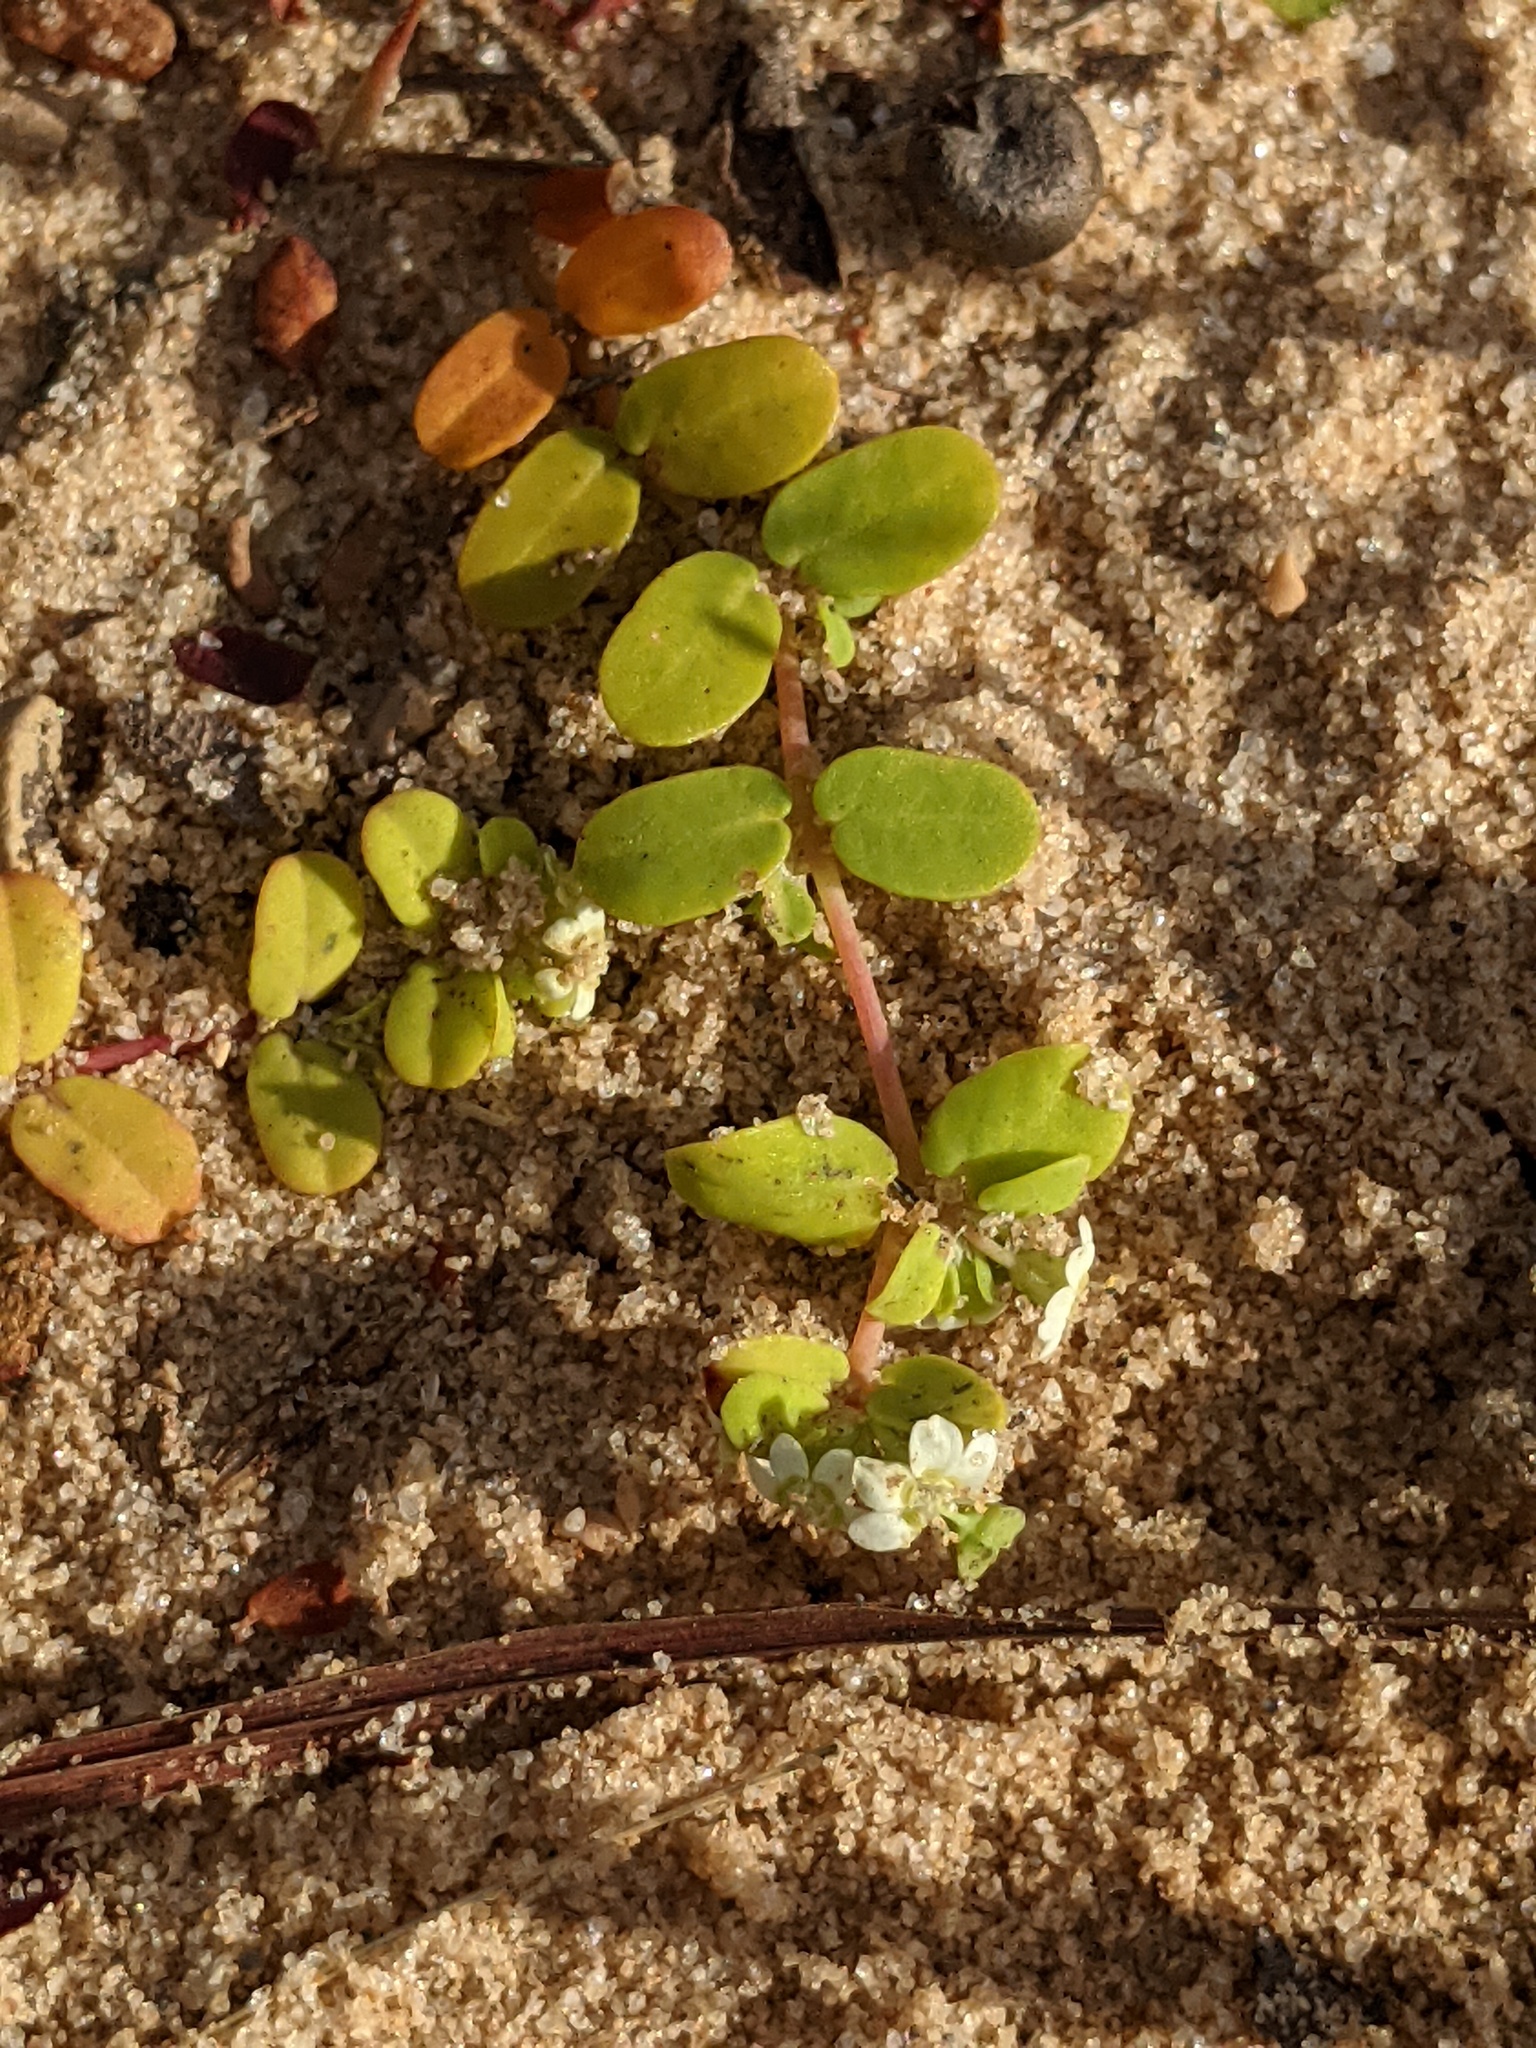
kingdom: Plantae
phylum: Tracheophyta
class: Magnoliopsida
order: Malpighiales
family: Euphorbiaceae
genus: Euphorbia
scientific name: Euphorbia cordifolia
